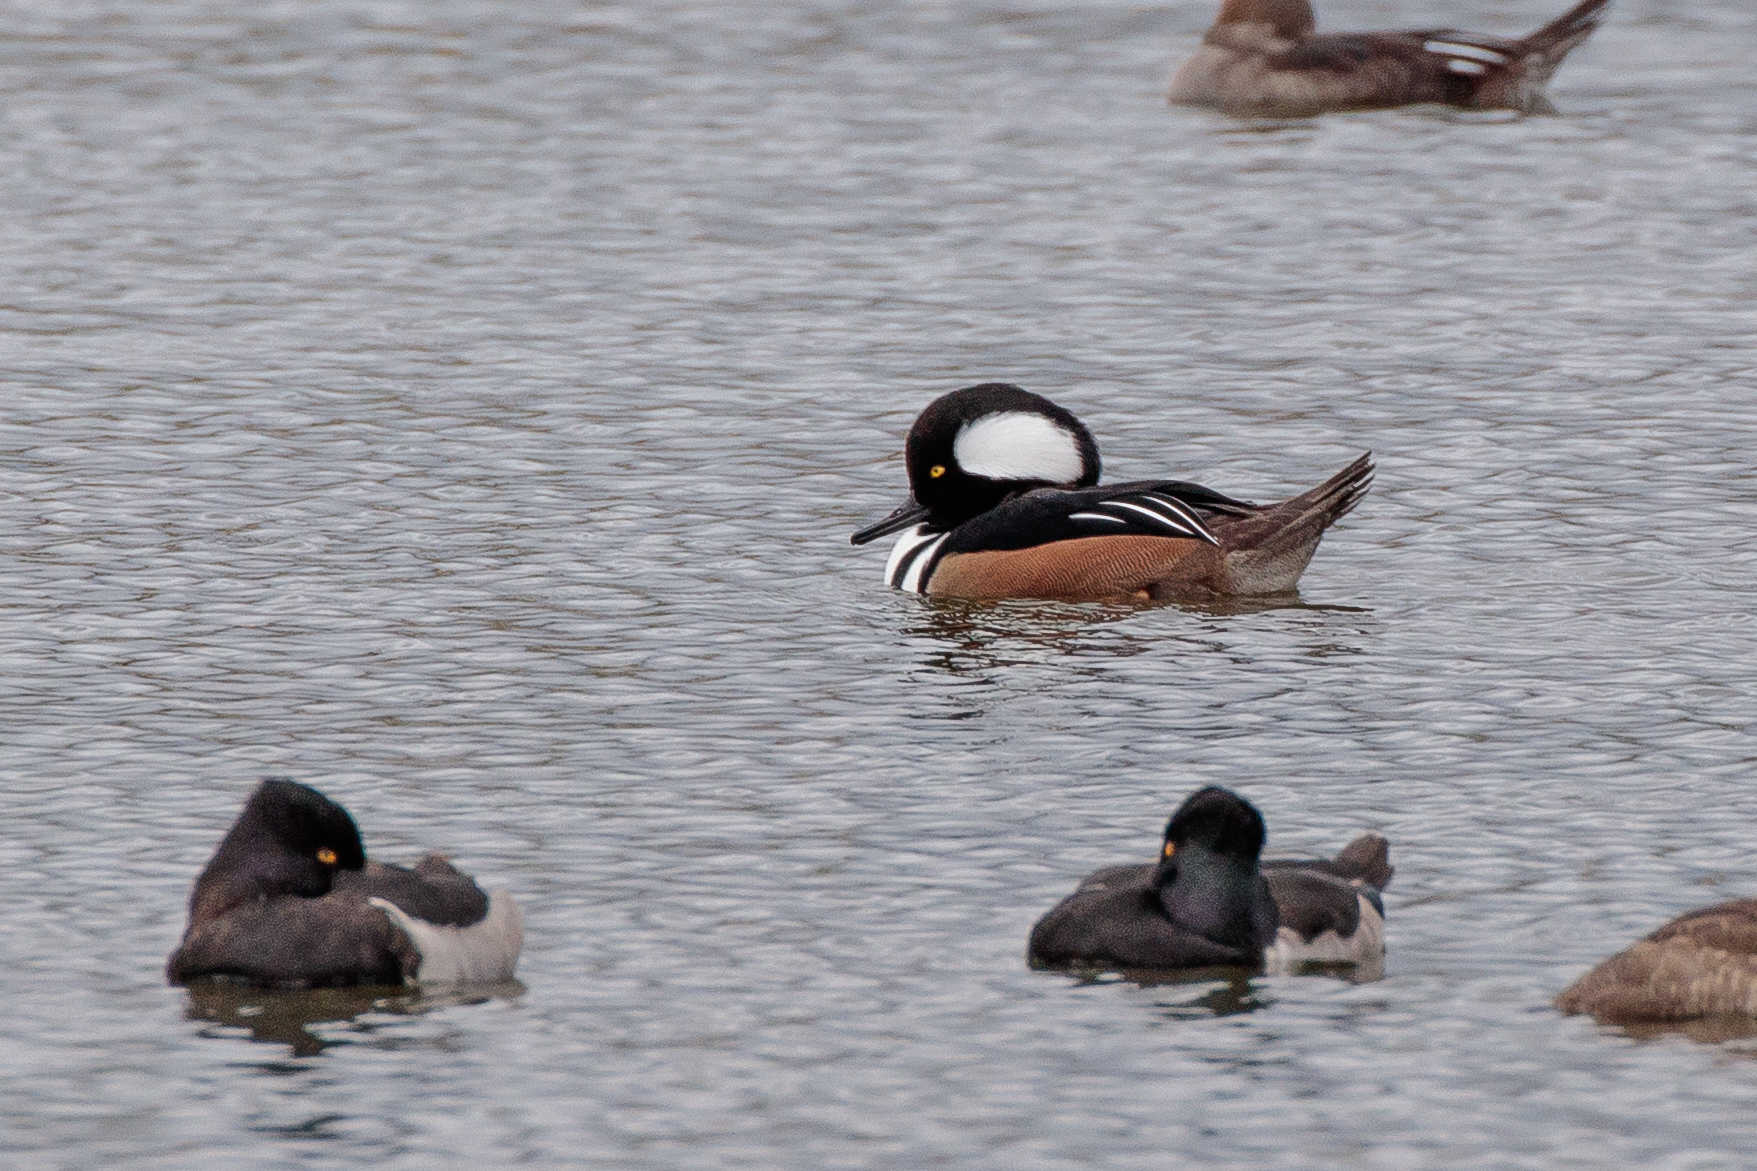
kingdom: Animalia
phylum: Chordata
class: Aves
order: Anseriformes
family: Anatidae
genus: Lophodytes
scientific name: Lophodytes cucullatus
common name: Hooded merganser
